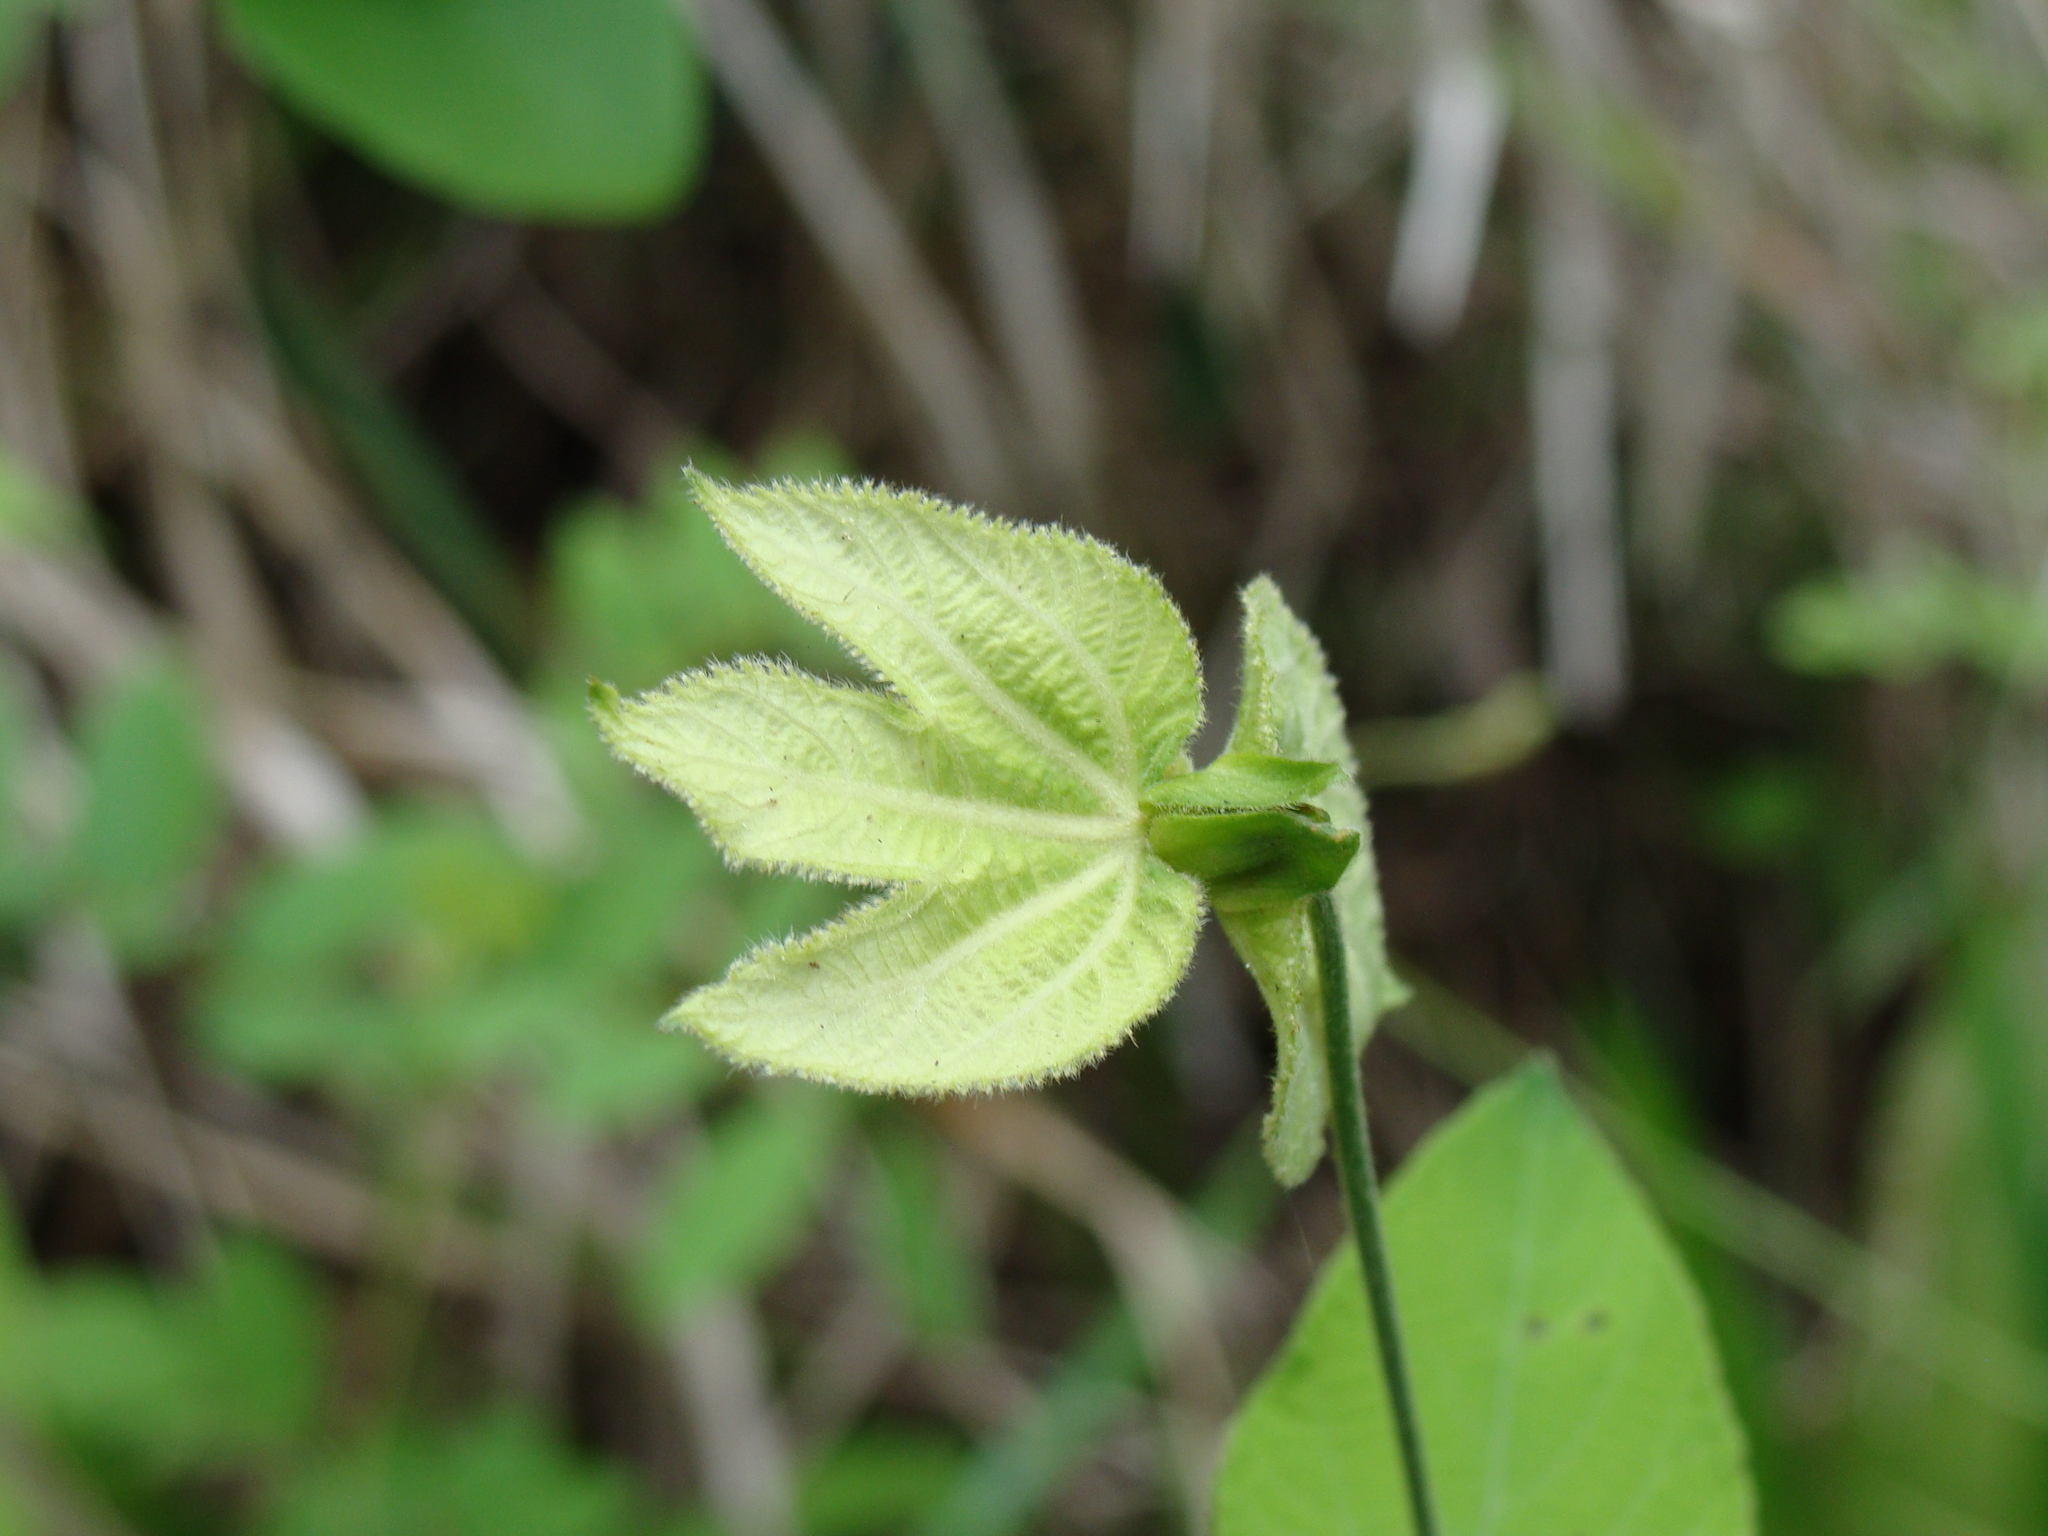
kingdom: Plantae
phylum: Tracheophyta
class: Magnoliopsida
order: Malpighiales
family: Euphorbiaceae
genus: Dalechampia
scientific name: Dalechampia scandens
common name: Spurgecreeper
